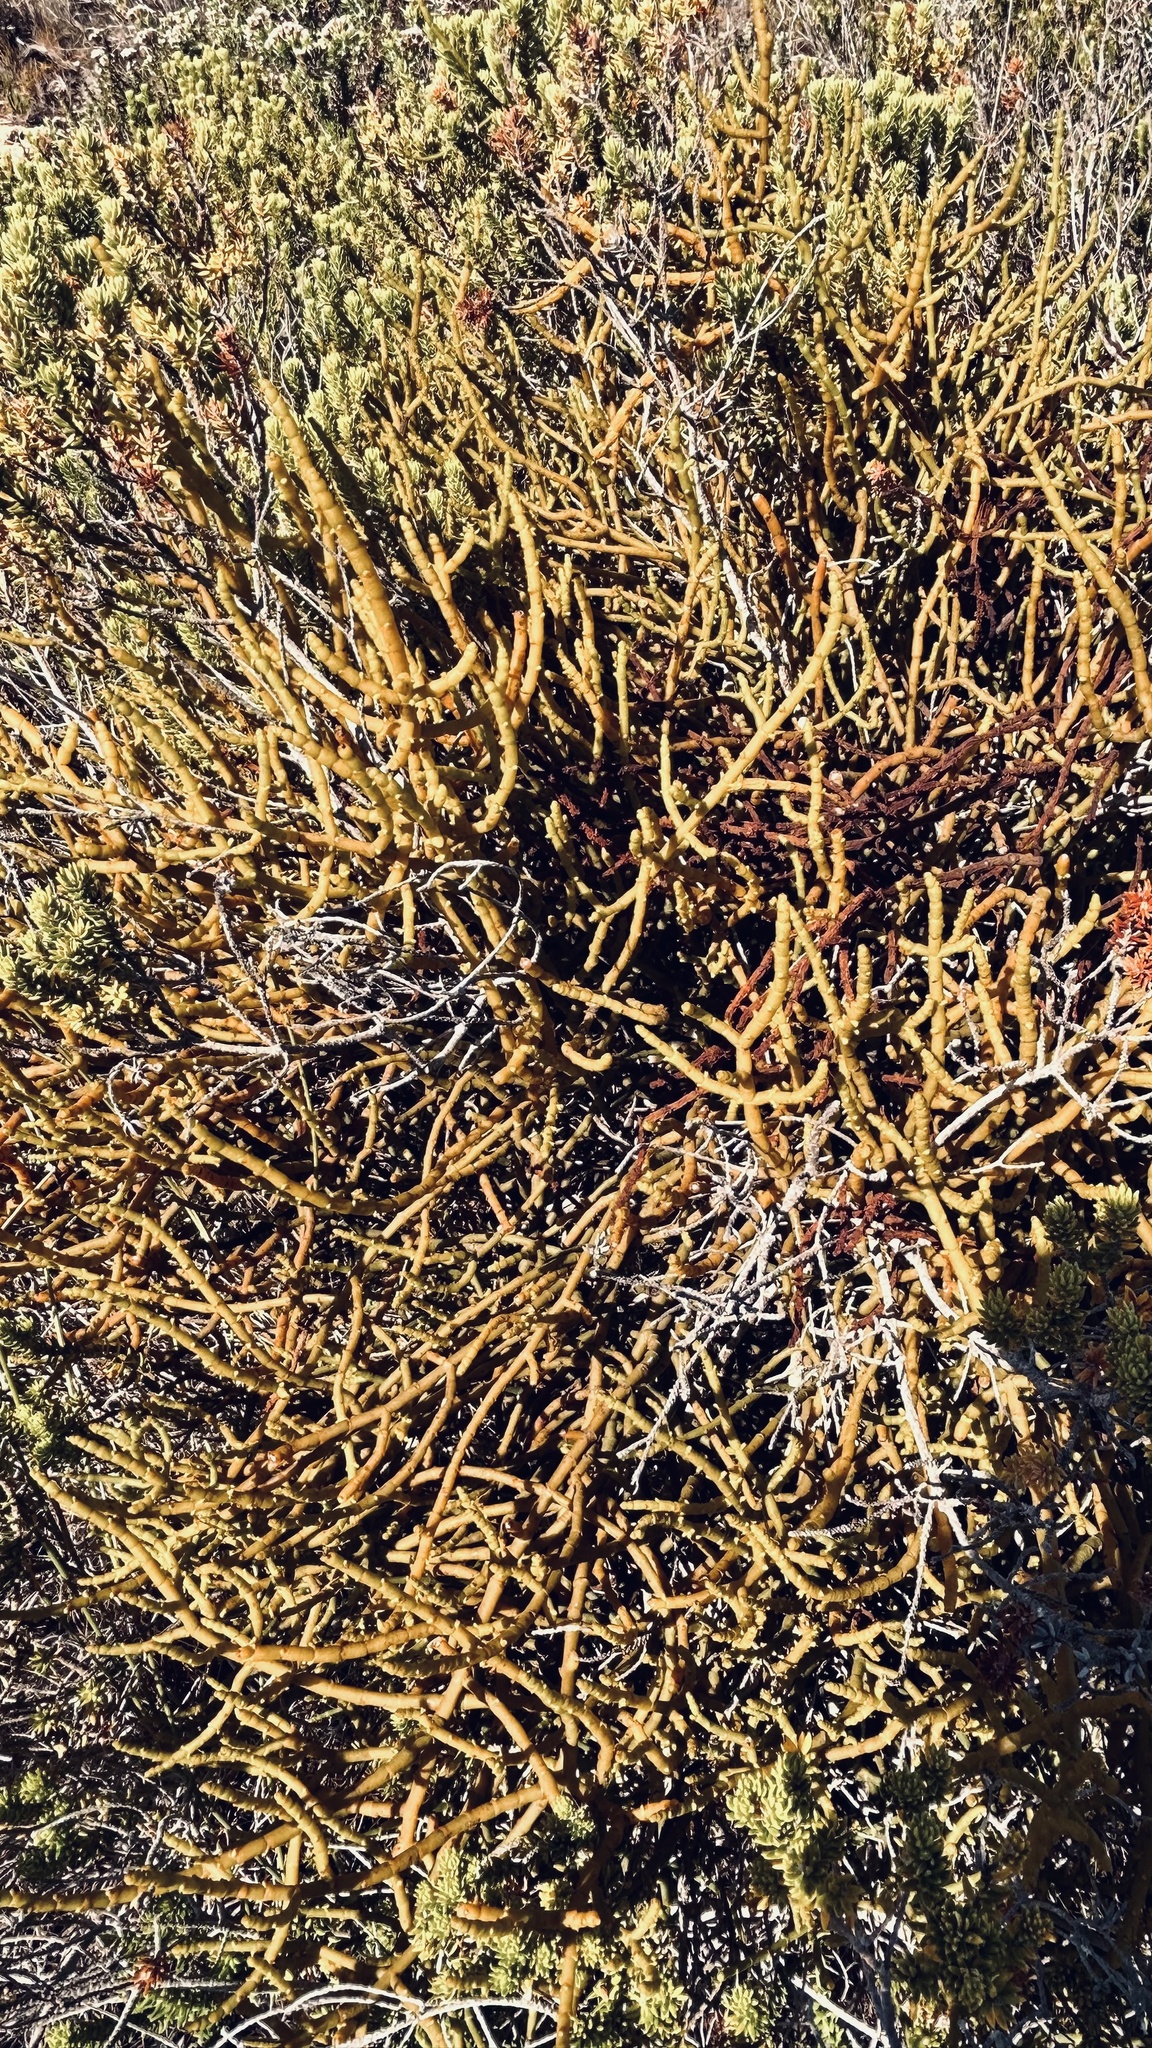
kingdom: Plantae
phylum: Tracheophyta
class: Magnoliopsida
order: Santalales
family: Viscaceae
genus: Viscum
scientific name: Viscum capense
